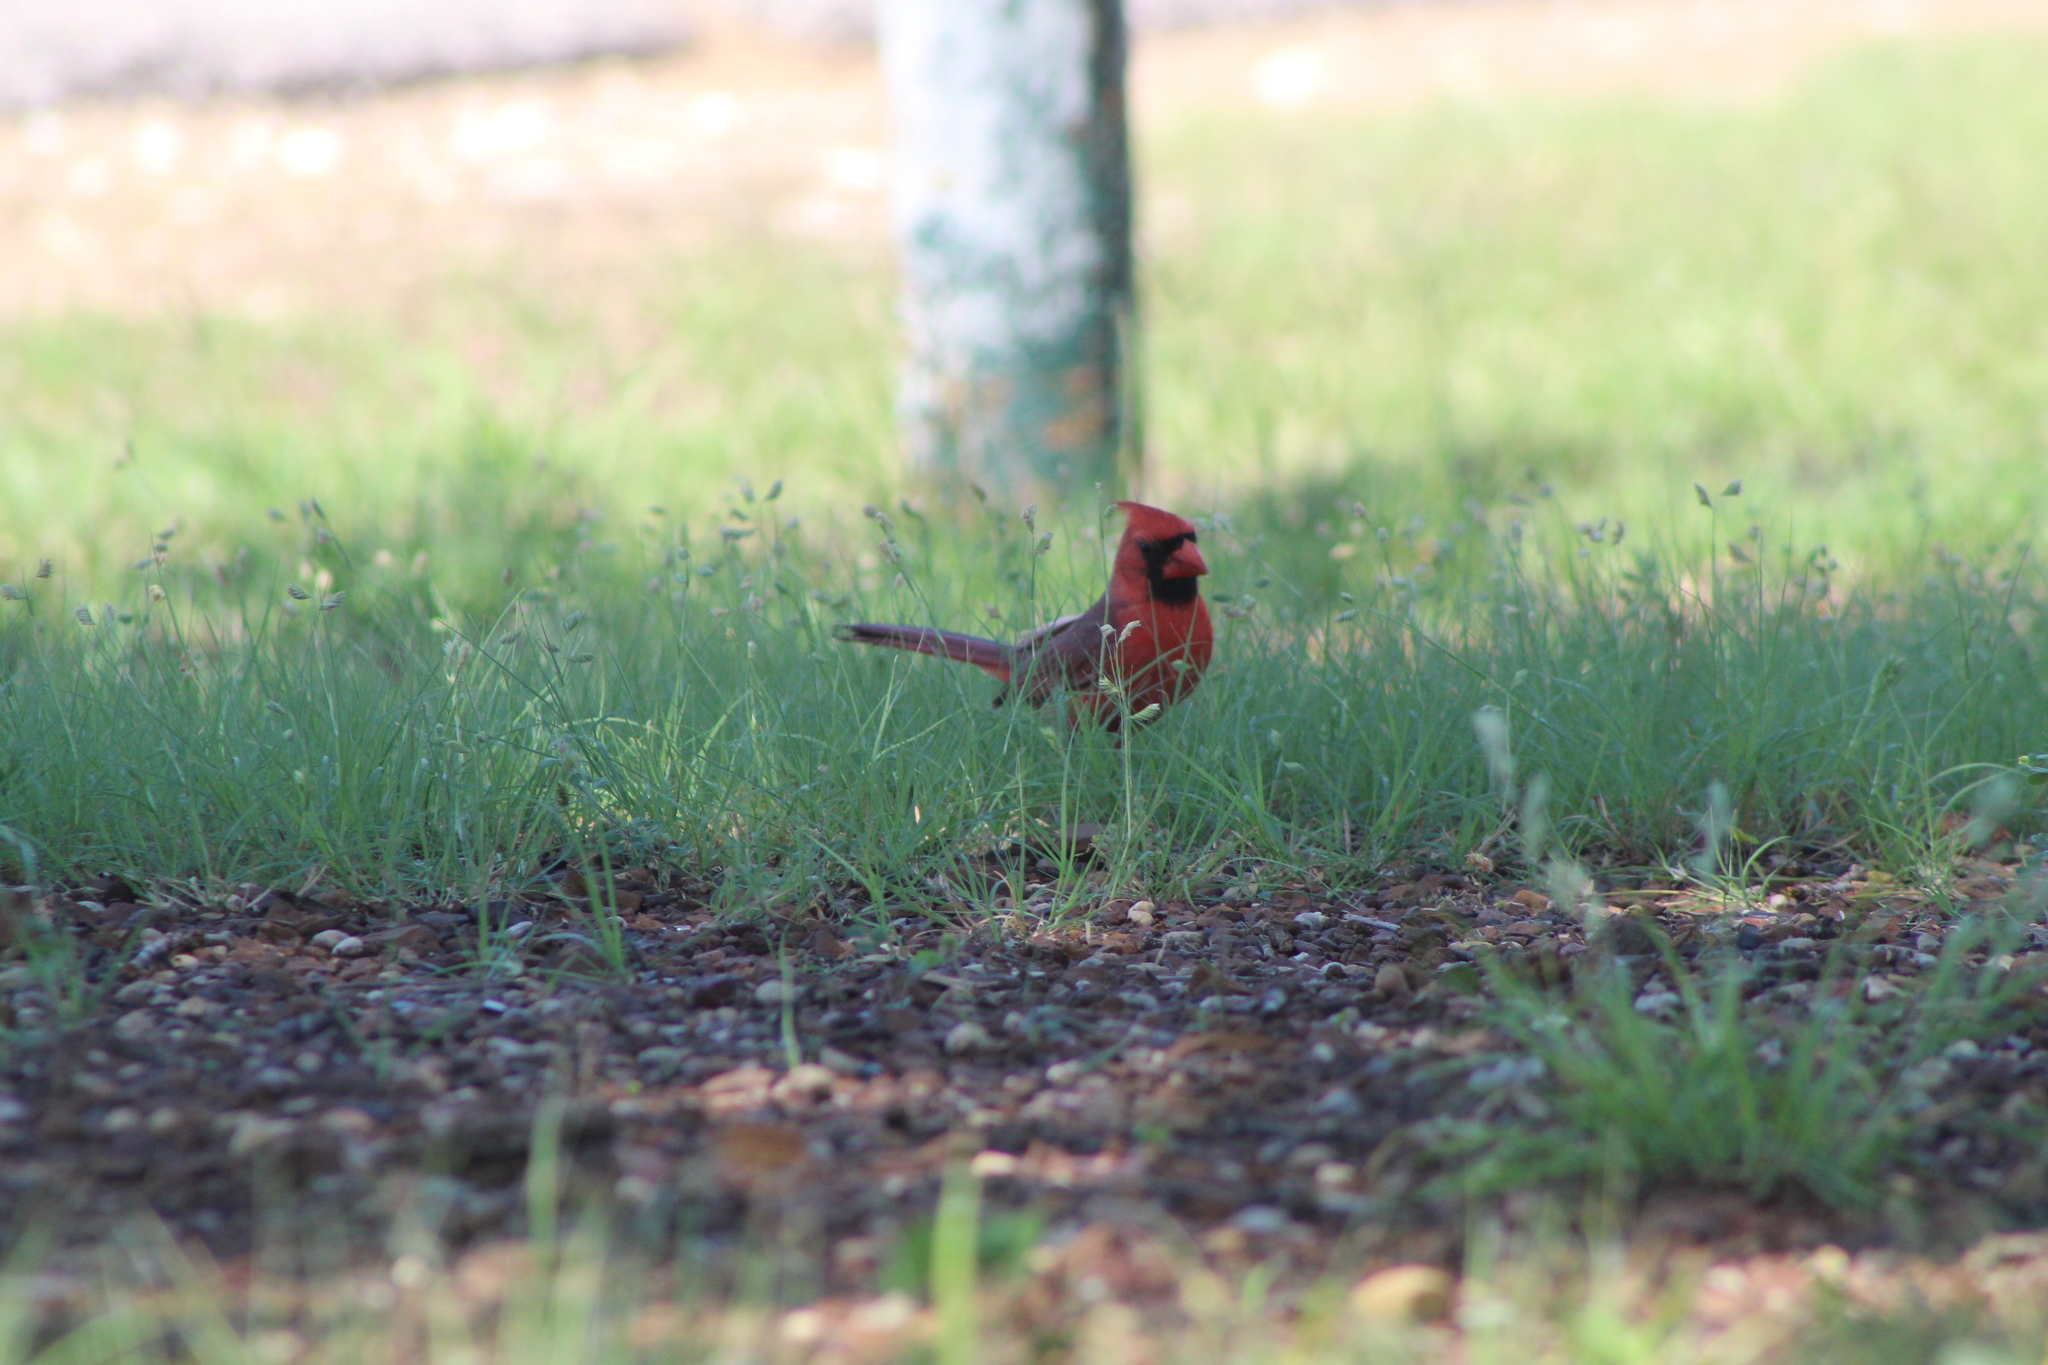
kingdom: Animalia
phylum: Chordata
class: Aves
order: Passeriformes
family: Cardinalidae
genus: Cardinalis
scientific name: Cardinalis cardinalis
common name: Northern cardinal
